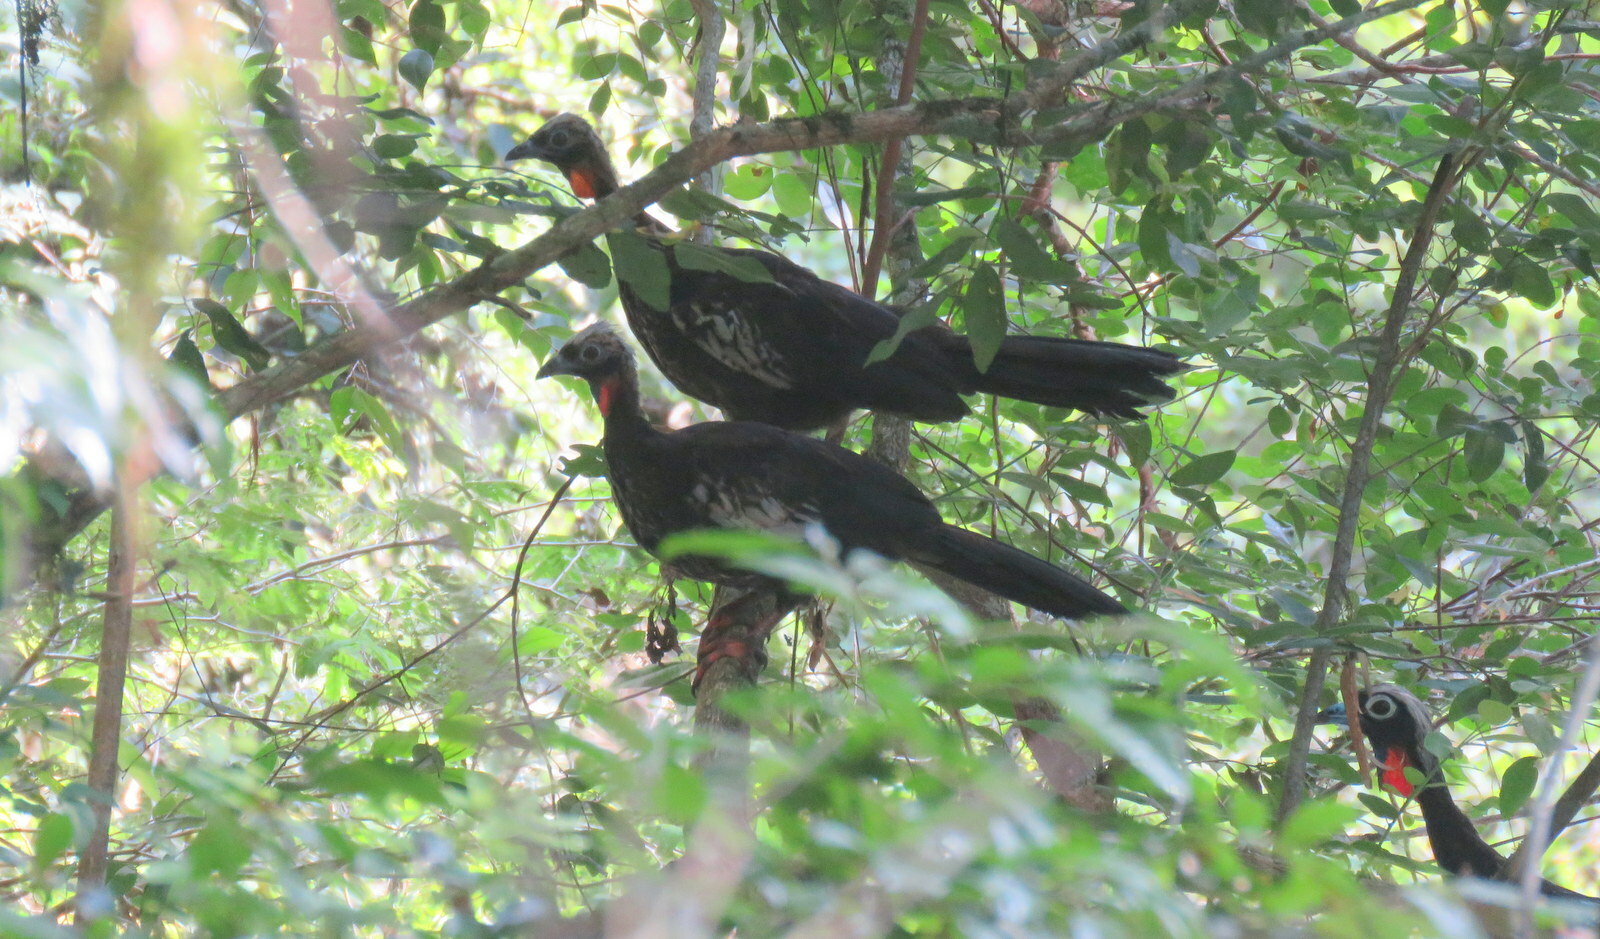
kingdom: Animalia
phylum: Chordata
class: Aves
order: Galliformes
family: Cracidae
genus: Pipile
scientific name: Pipile jacutinga
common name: Black-fronted piping-guan
